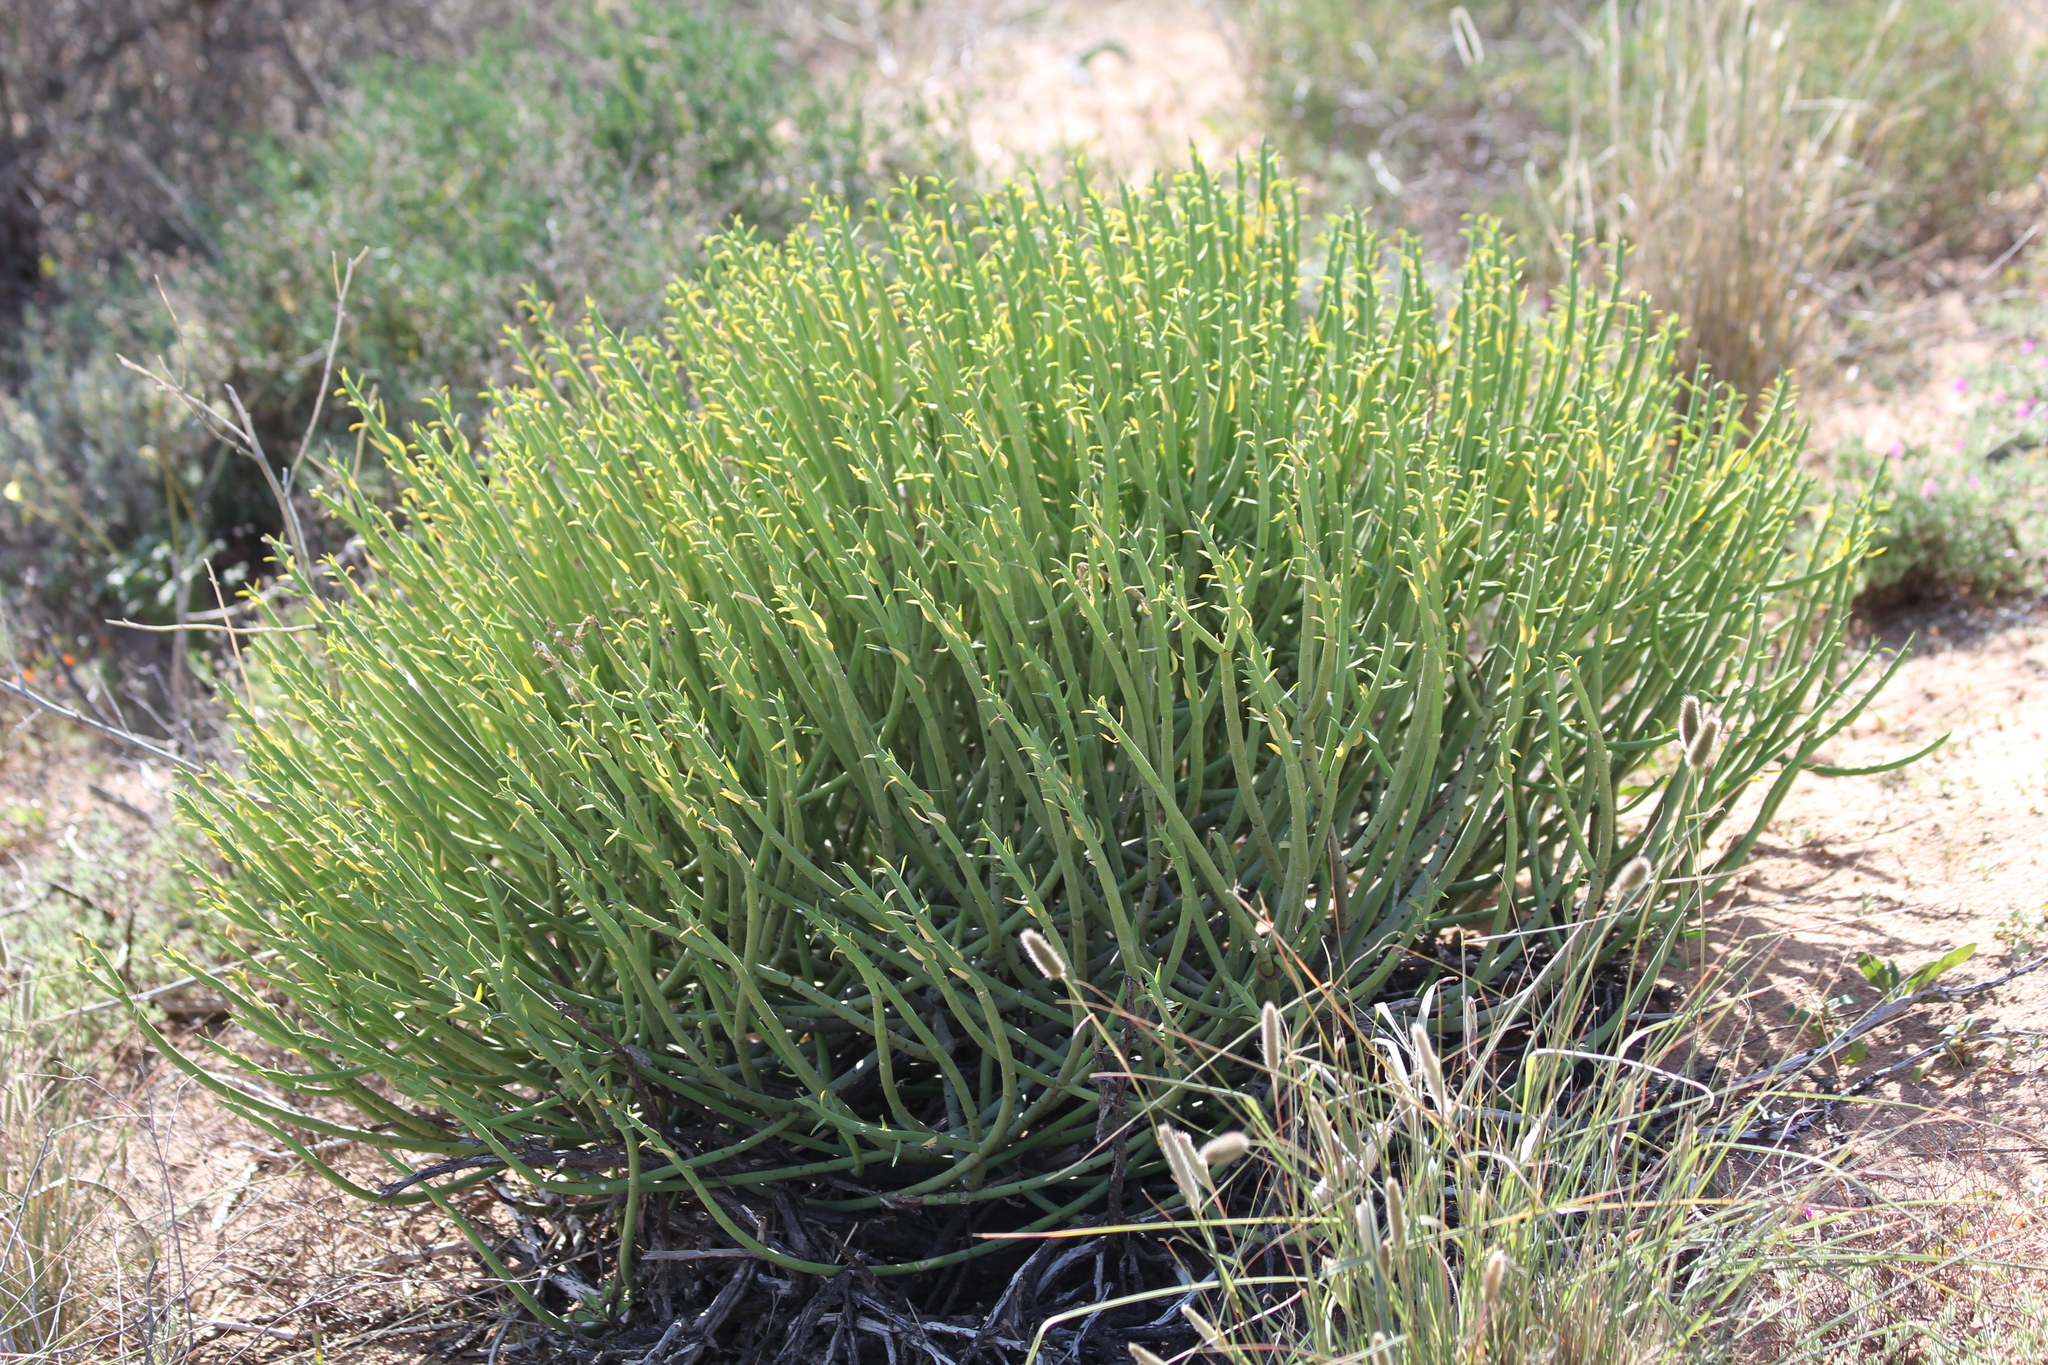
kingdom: Plantae
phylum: Tracheophyta
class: Magnoliopsida
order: Malpighiales
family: Euphorbiaceae
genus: Euphorbia
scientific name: Euphorbia mauritanica
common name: Jackal's-food
